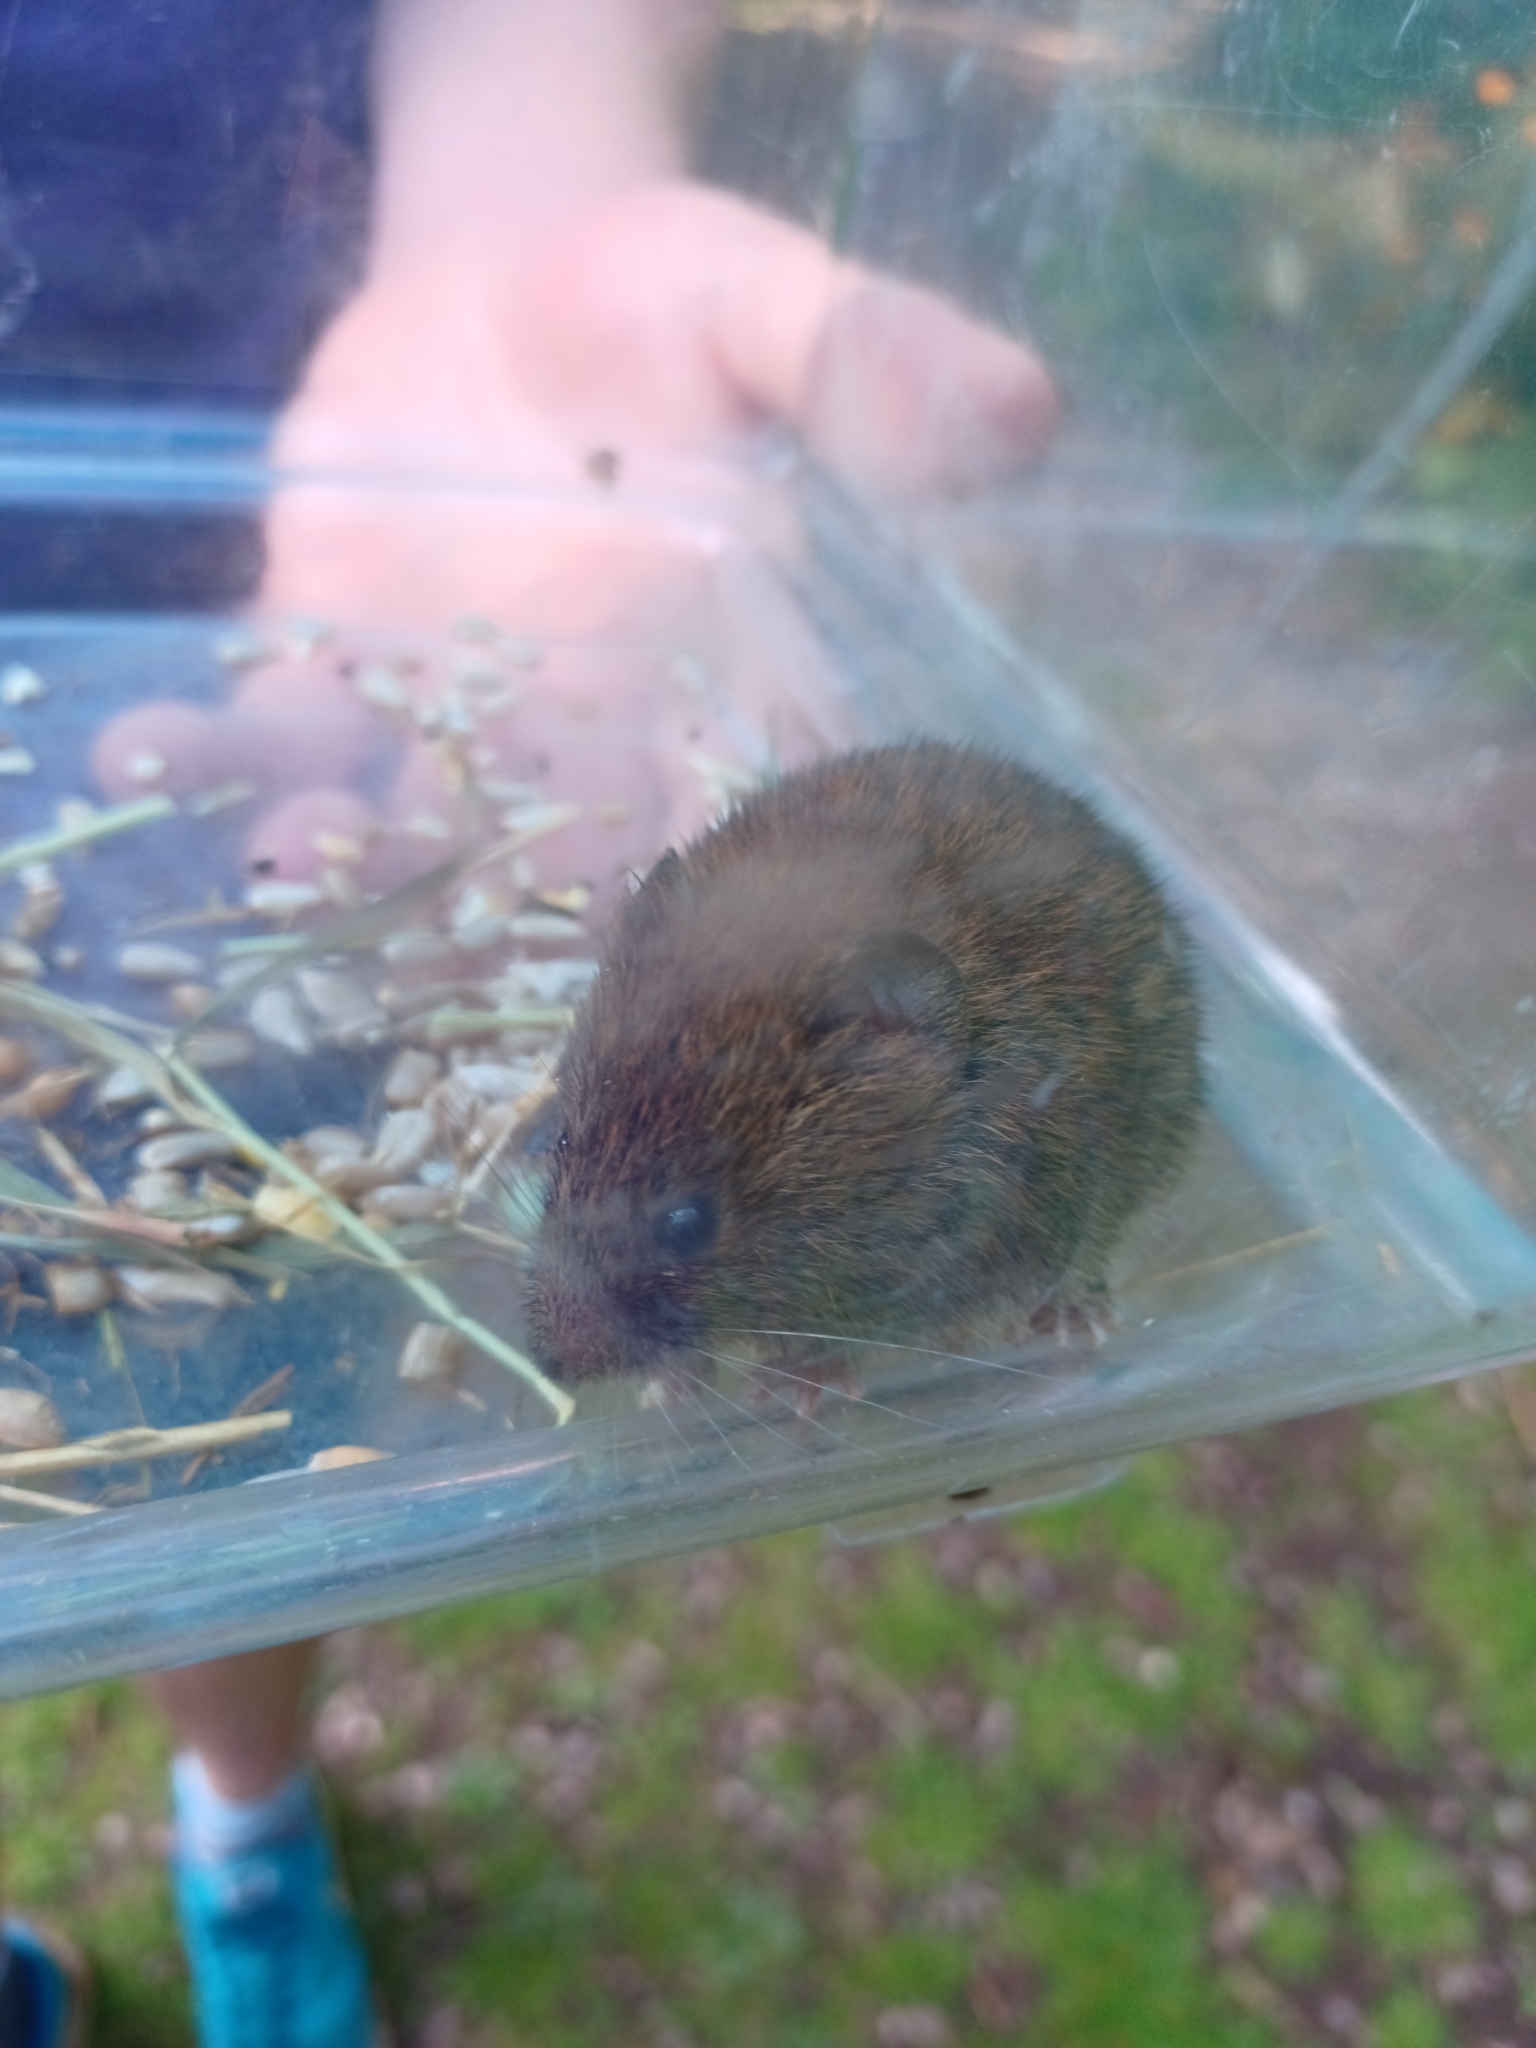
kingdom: Animalia
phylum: Chordata
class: Mammalia
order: Rodentia
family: Cricetidae
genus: Myodes
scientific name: Myodes glareolus
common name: Bank vole
